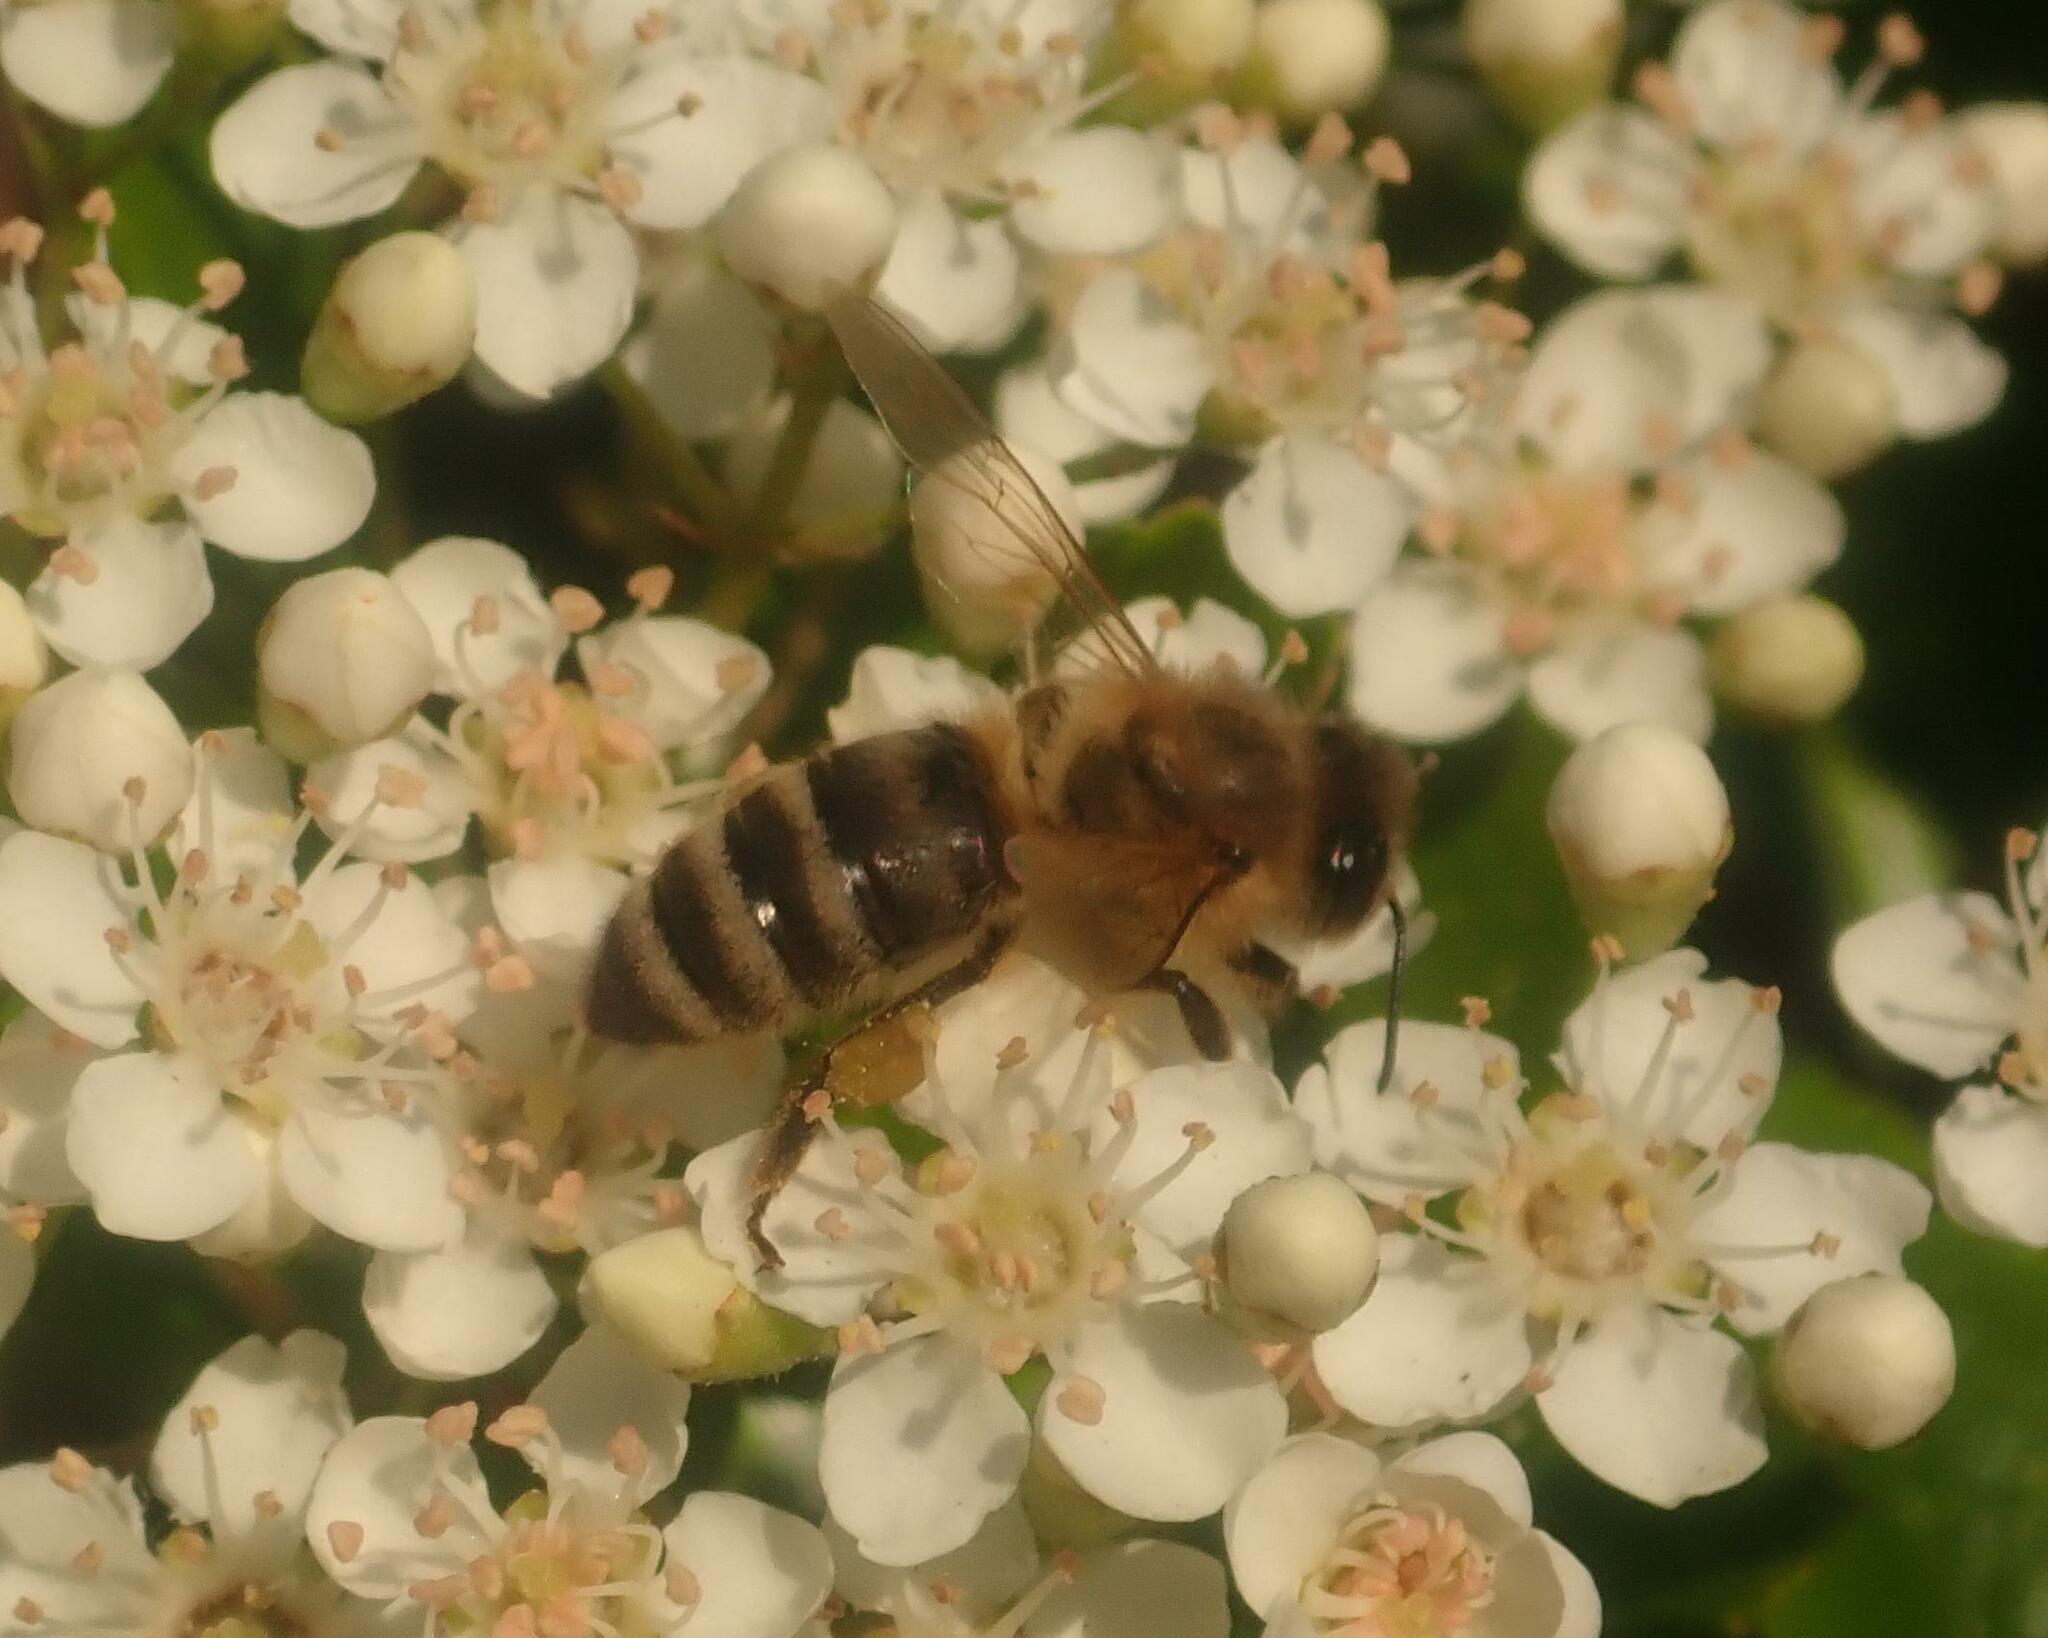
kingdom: Animalia
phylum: Arthropoda
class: Insecta
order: Hymenoptera
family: Apidae
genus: Apis
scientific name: Apis mellifera
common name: Honey bee
